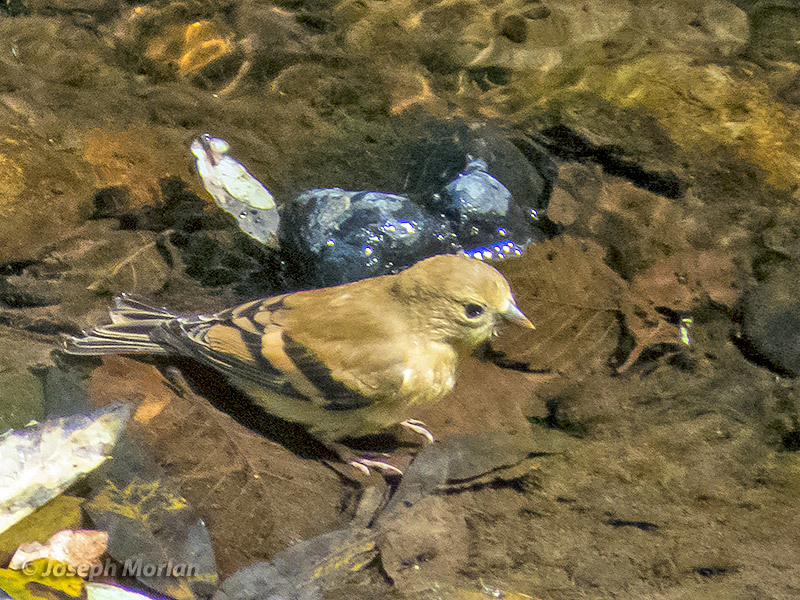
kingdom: Animalia
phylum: Chordata
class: Aves
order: Passeriformes
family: Fringillidae
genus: Spinus
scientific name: Spinus tristis
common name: American goldfinch
